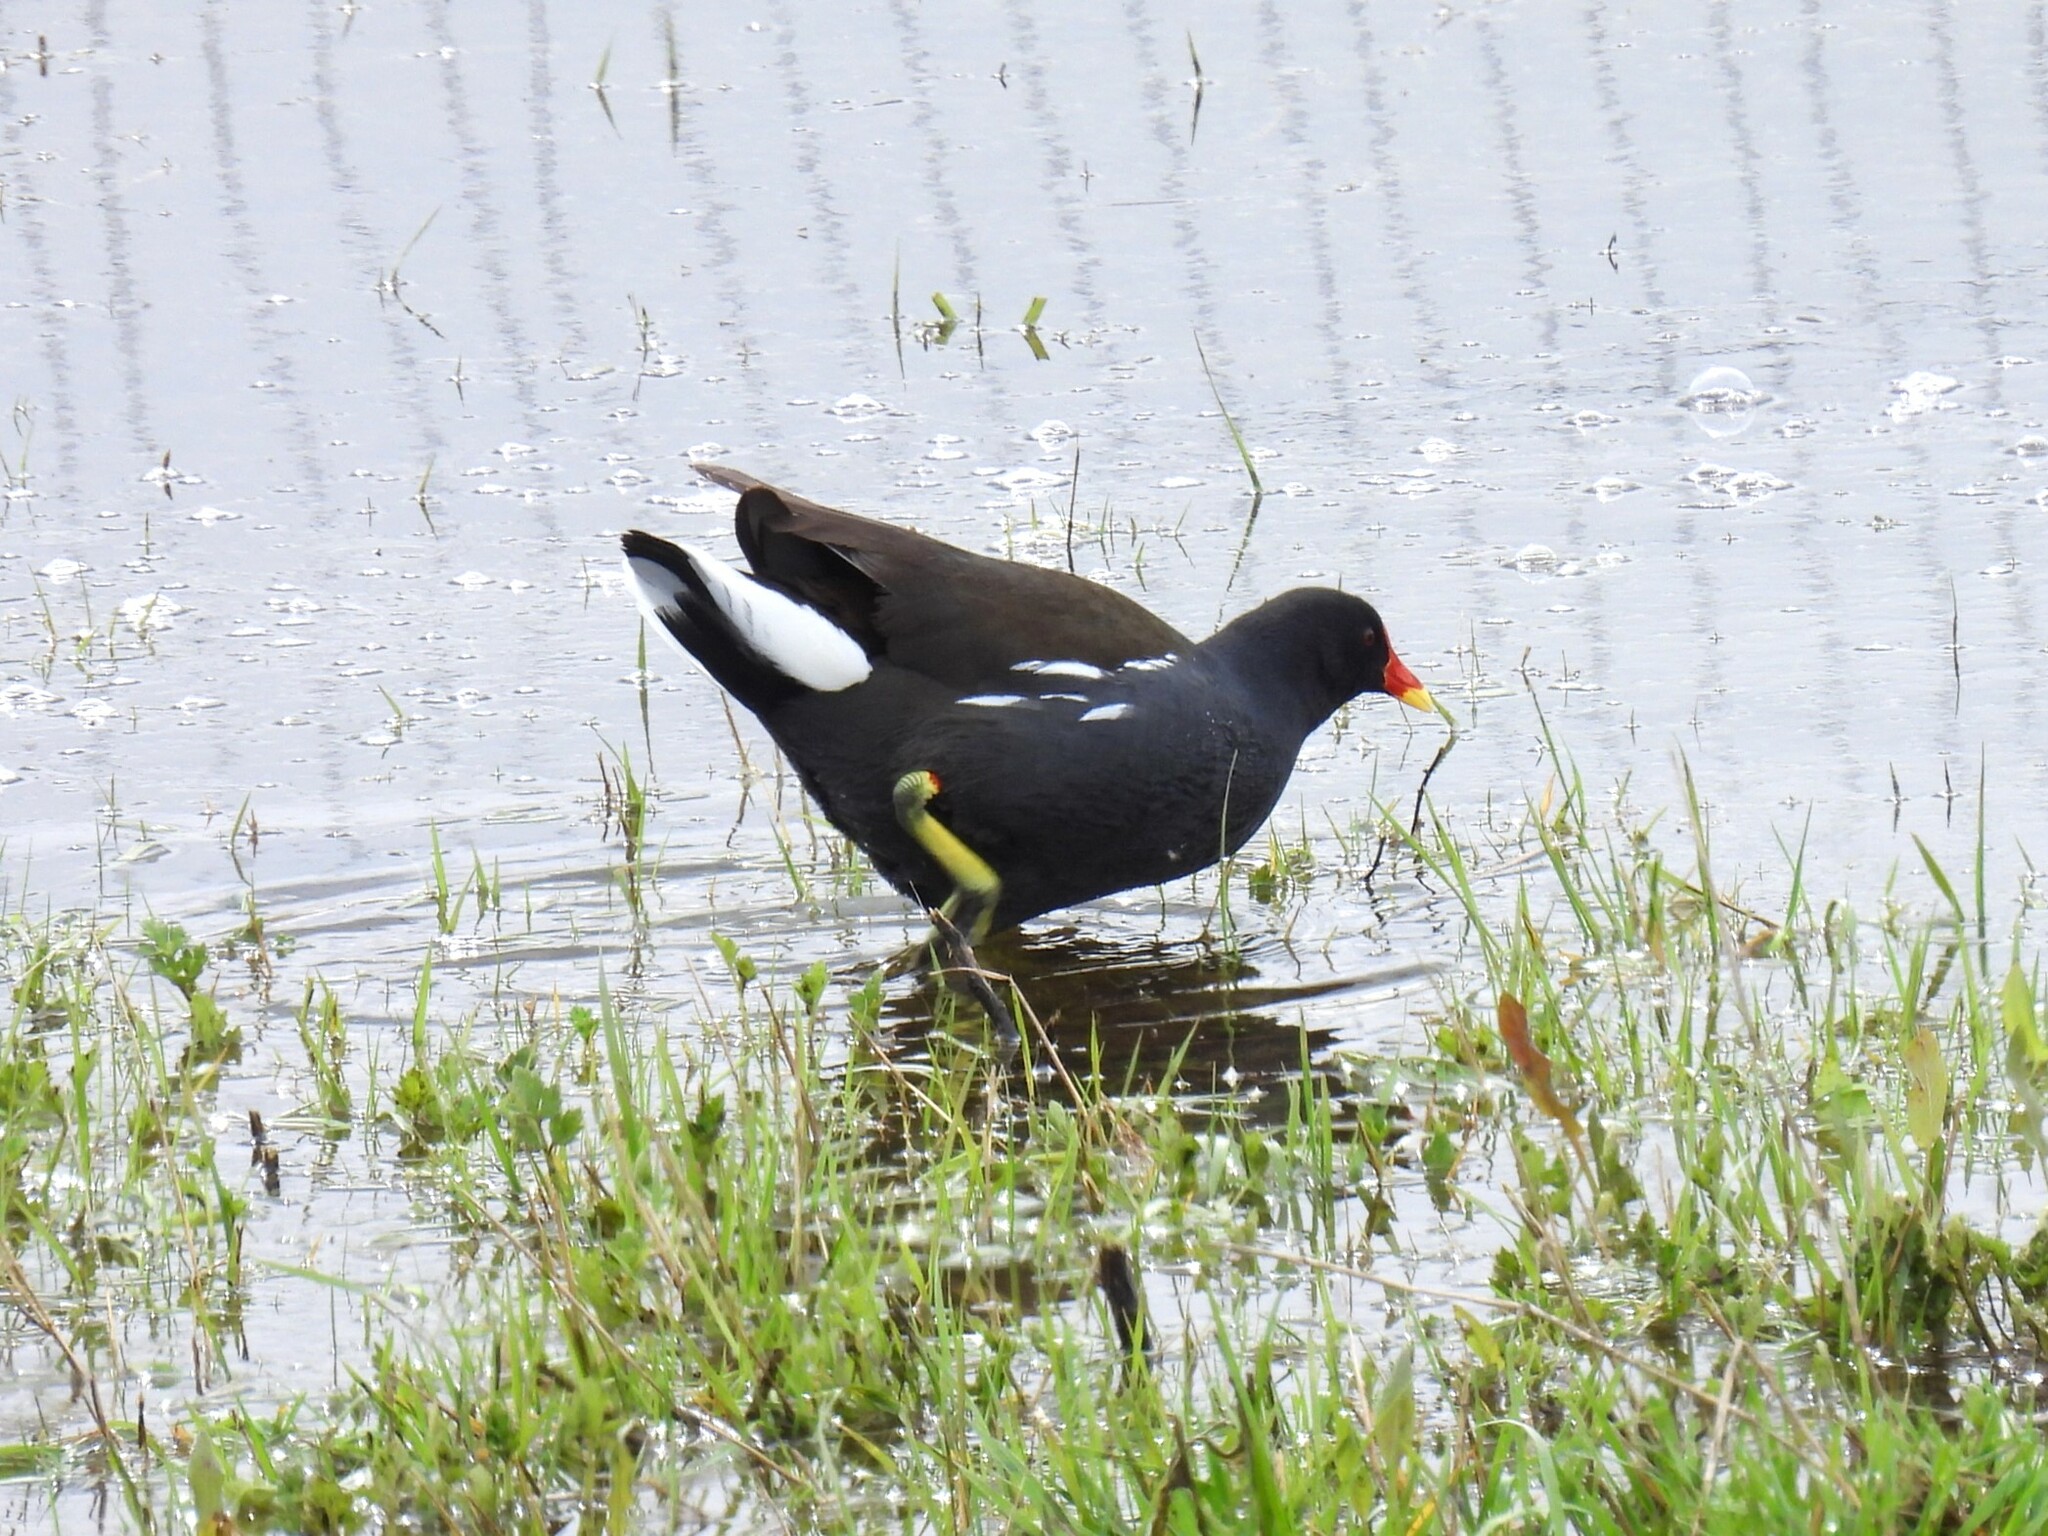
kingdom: Animalia
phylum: Chordata
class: Aves
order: Gruiformes
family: Rallidae
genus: Gallinula
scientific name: Gallinula chloropus
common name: Common moorhen
